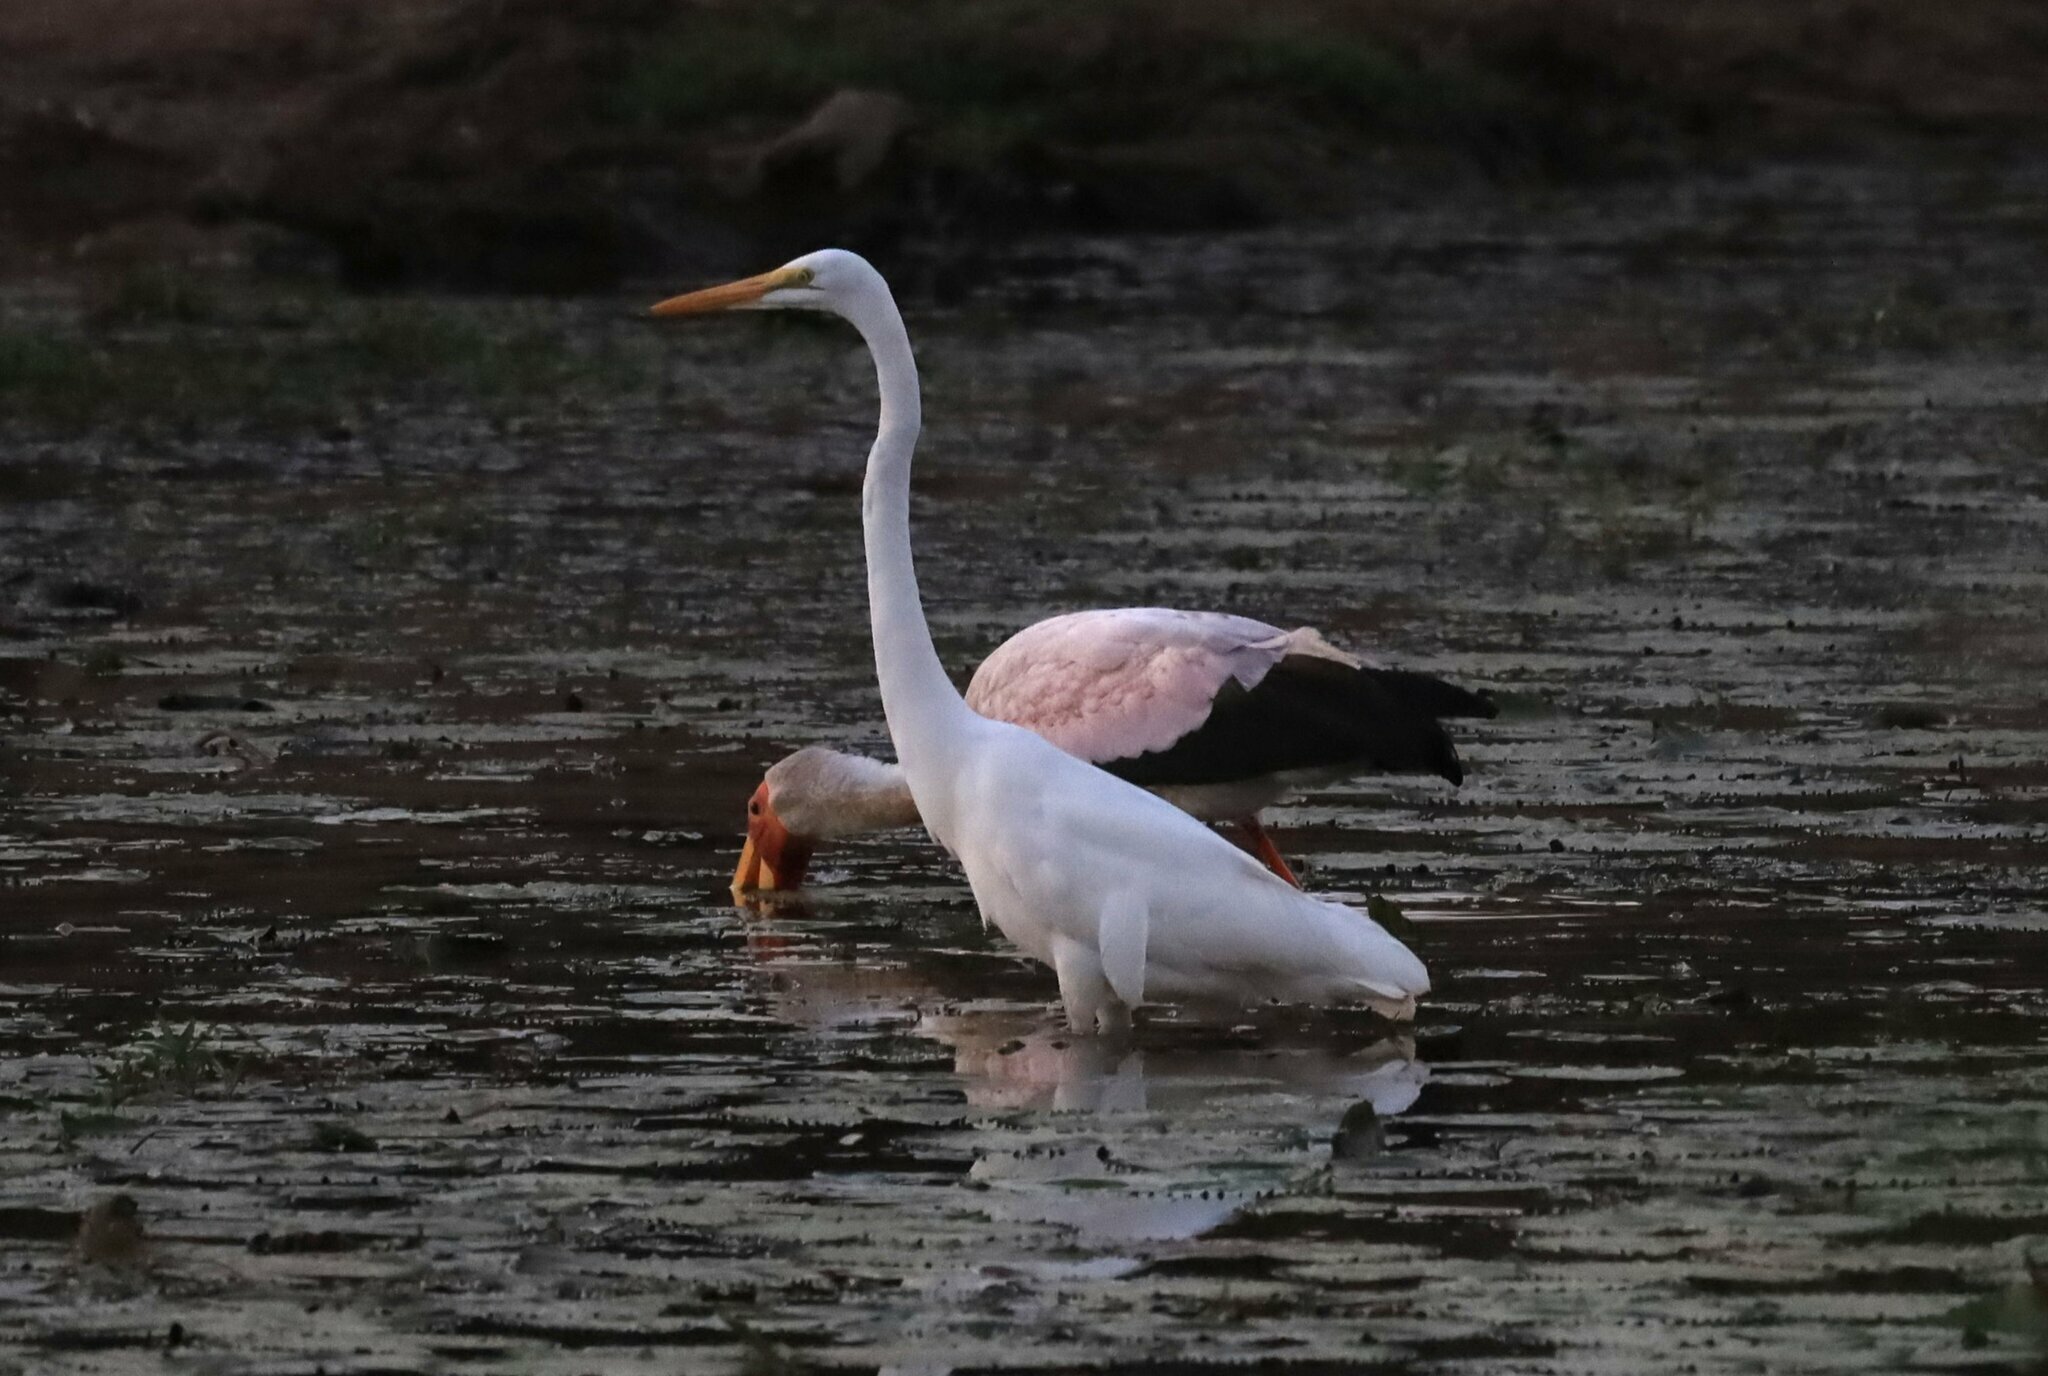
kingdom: Animalia
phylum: Chordata
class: Aves
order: Pelecaniformes
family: Ardeidae
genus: Ardea
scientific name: Ardea alba
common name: Great egret
